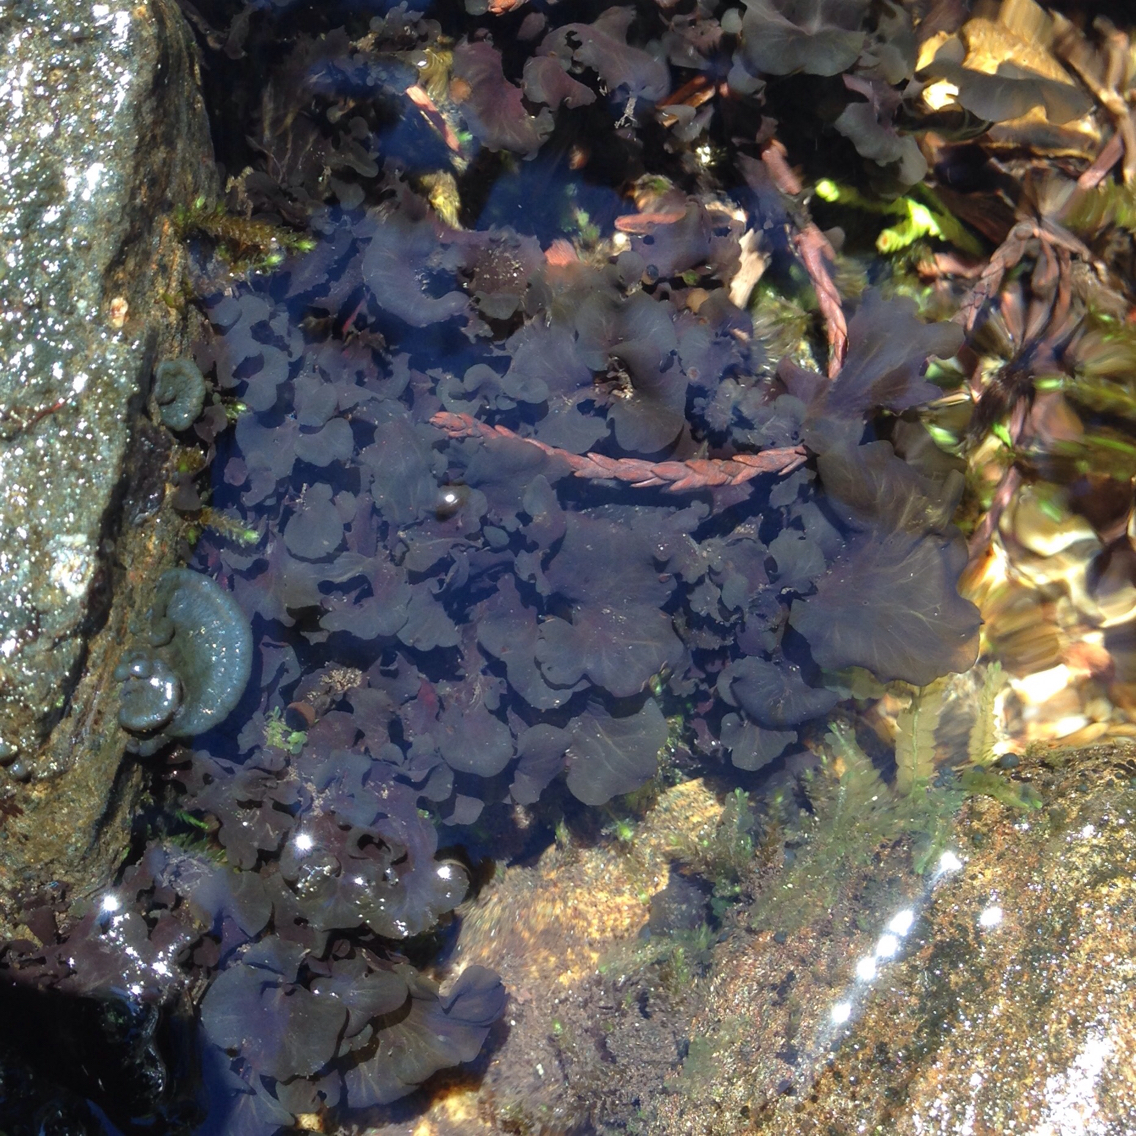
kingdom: Fungi
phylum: Ascomycota
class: Lecanoromycetes
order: Peltigerales
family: Peltigeraceae
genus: Peltigera
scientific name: Peltigera gowardii
